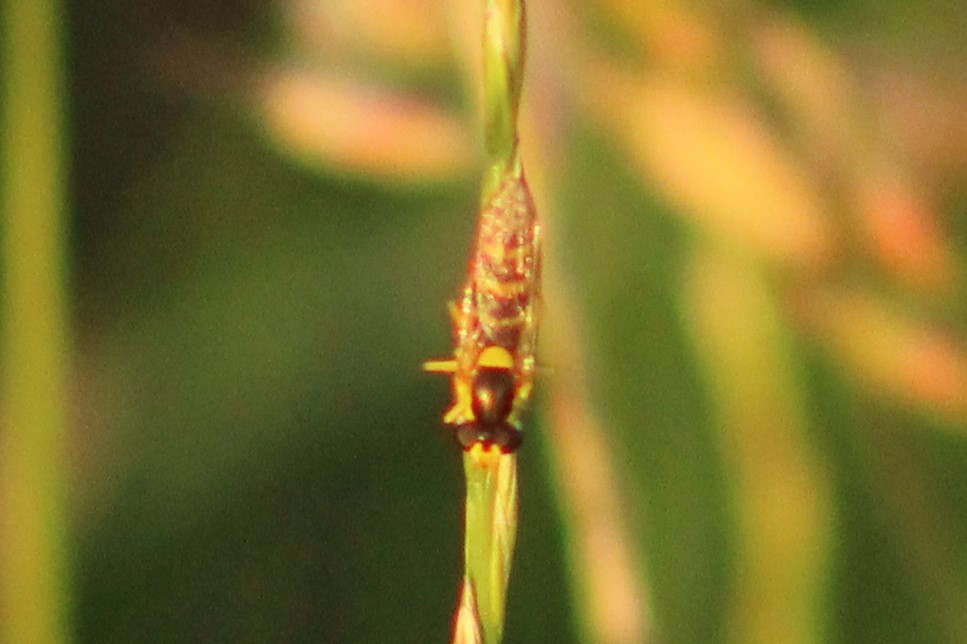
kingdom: Animalia
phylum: Arthropoda
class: Insecta
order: Diptera
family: Syrphidae
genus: Sphaerophoria
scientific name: Sphaerophoria
